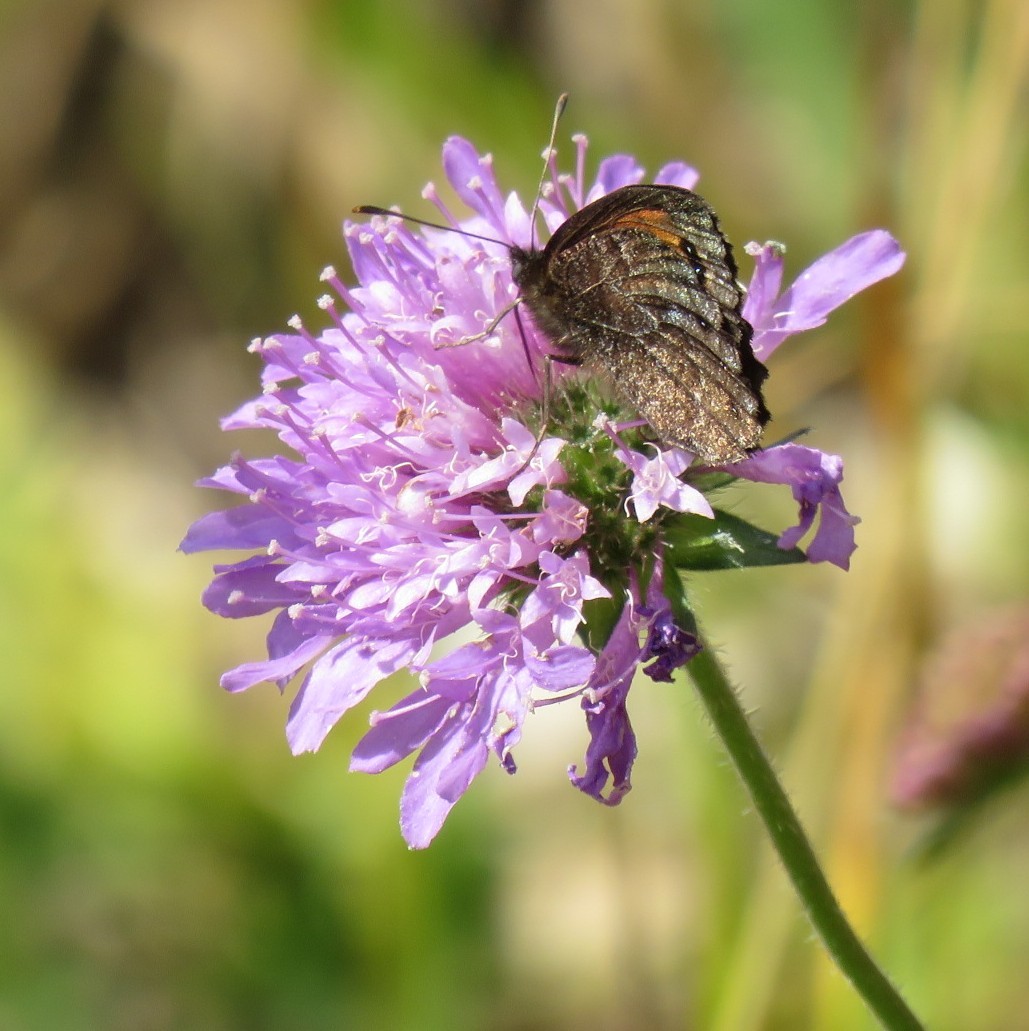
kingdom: Animalia
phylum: Arthropoda
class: Insecta
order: Lepidoptera
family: Nymphalidae
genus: Erebia
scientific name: Erebia montanus
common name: Marbled ringlet
